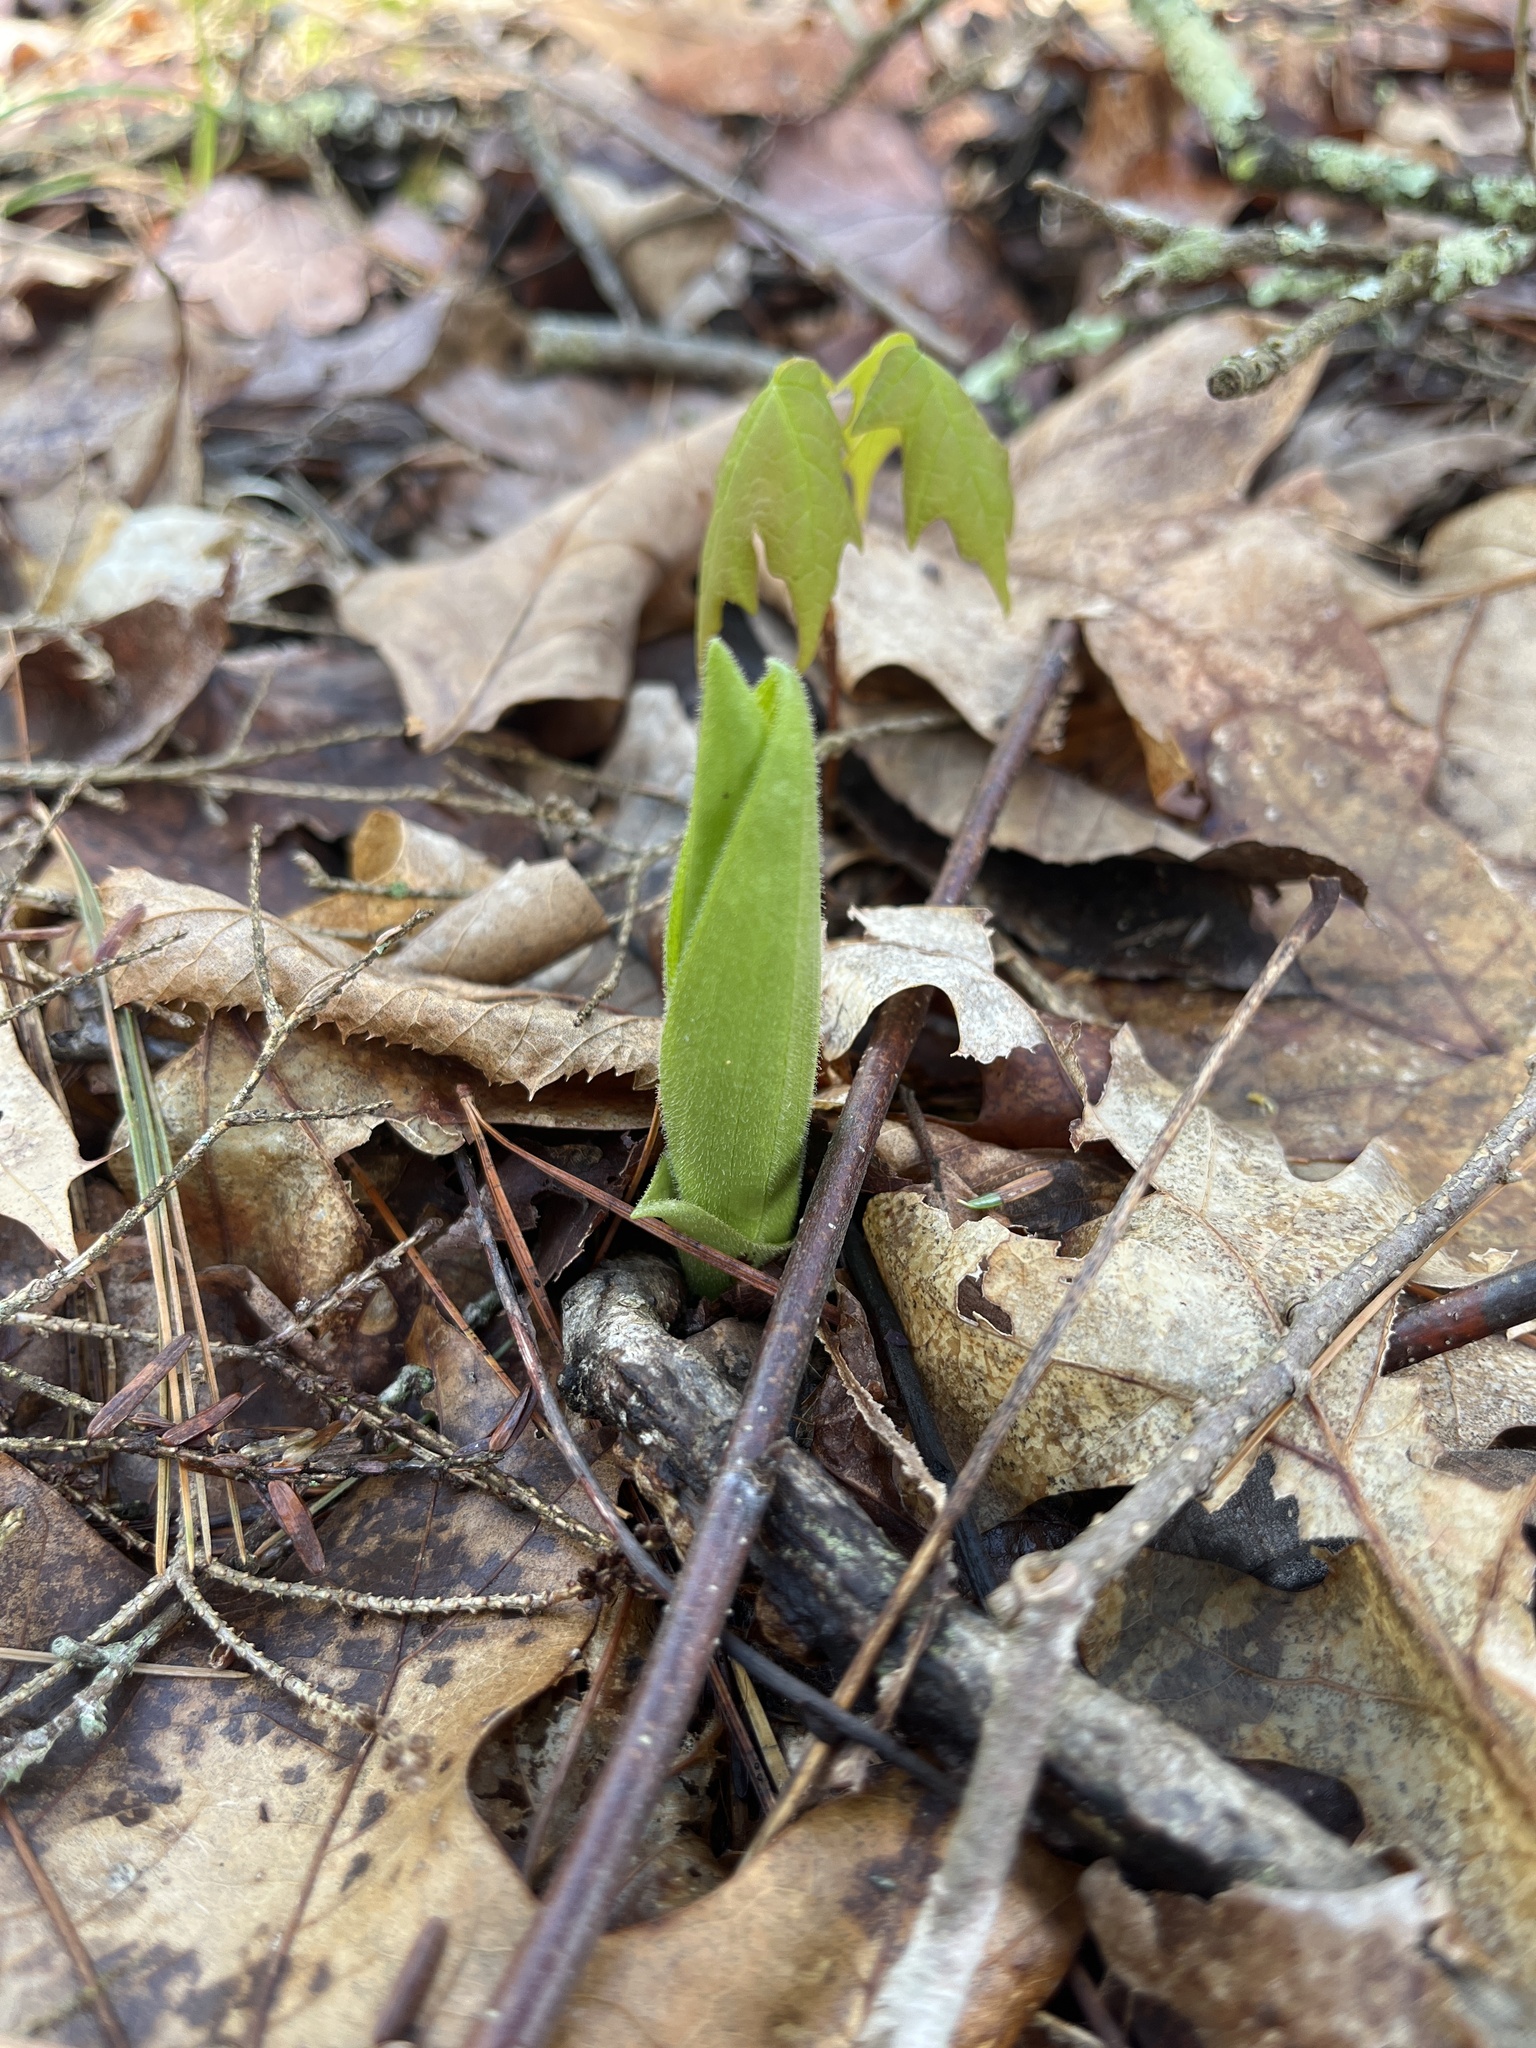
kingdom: Plantae
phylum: Tracheophyta
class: Liliopsida
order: Asparagales
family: Orchidaceae
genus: Cypripedium
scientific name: Cypripedium acaule
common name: Pink lady's-slipper
